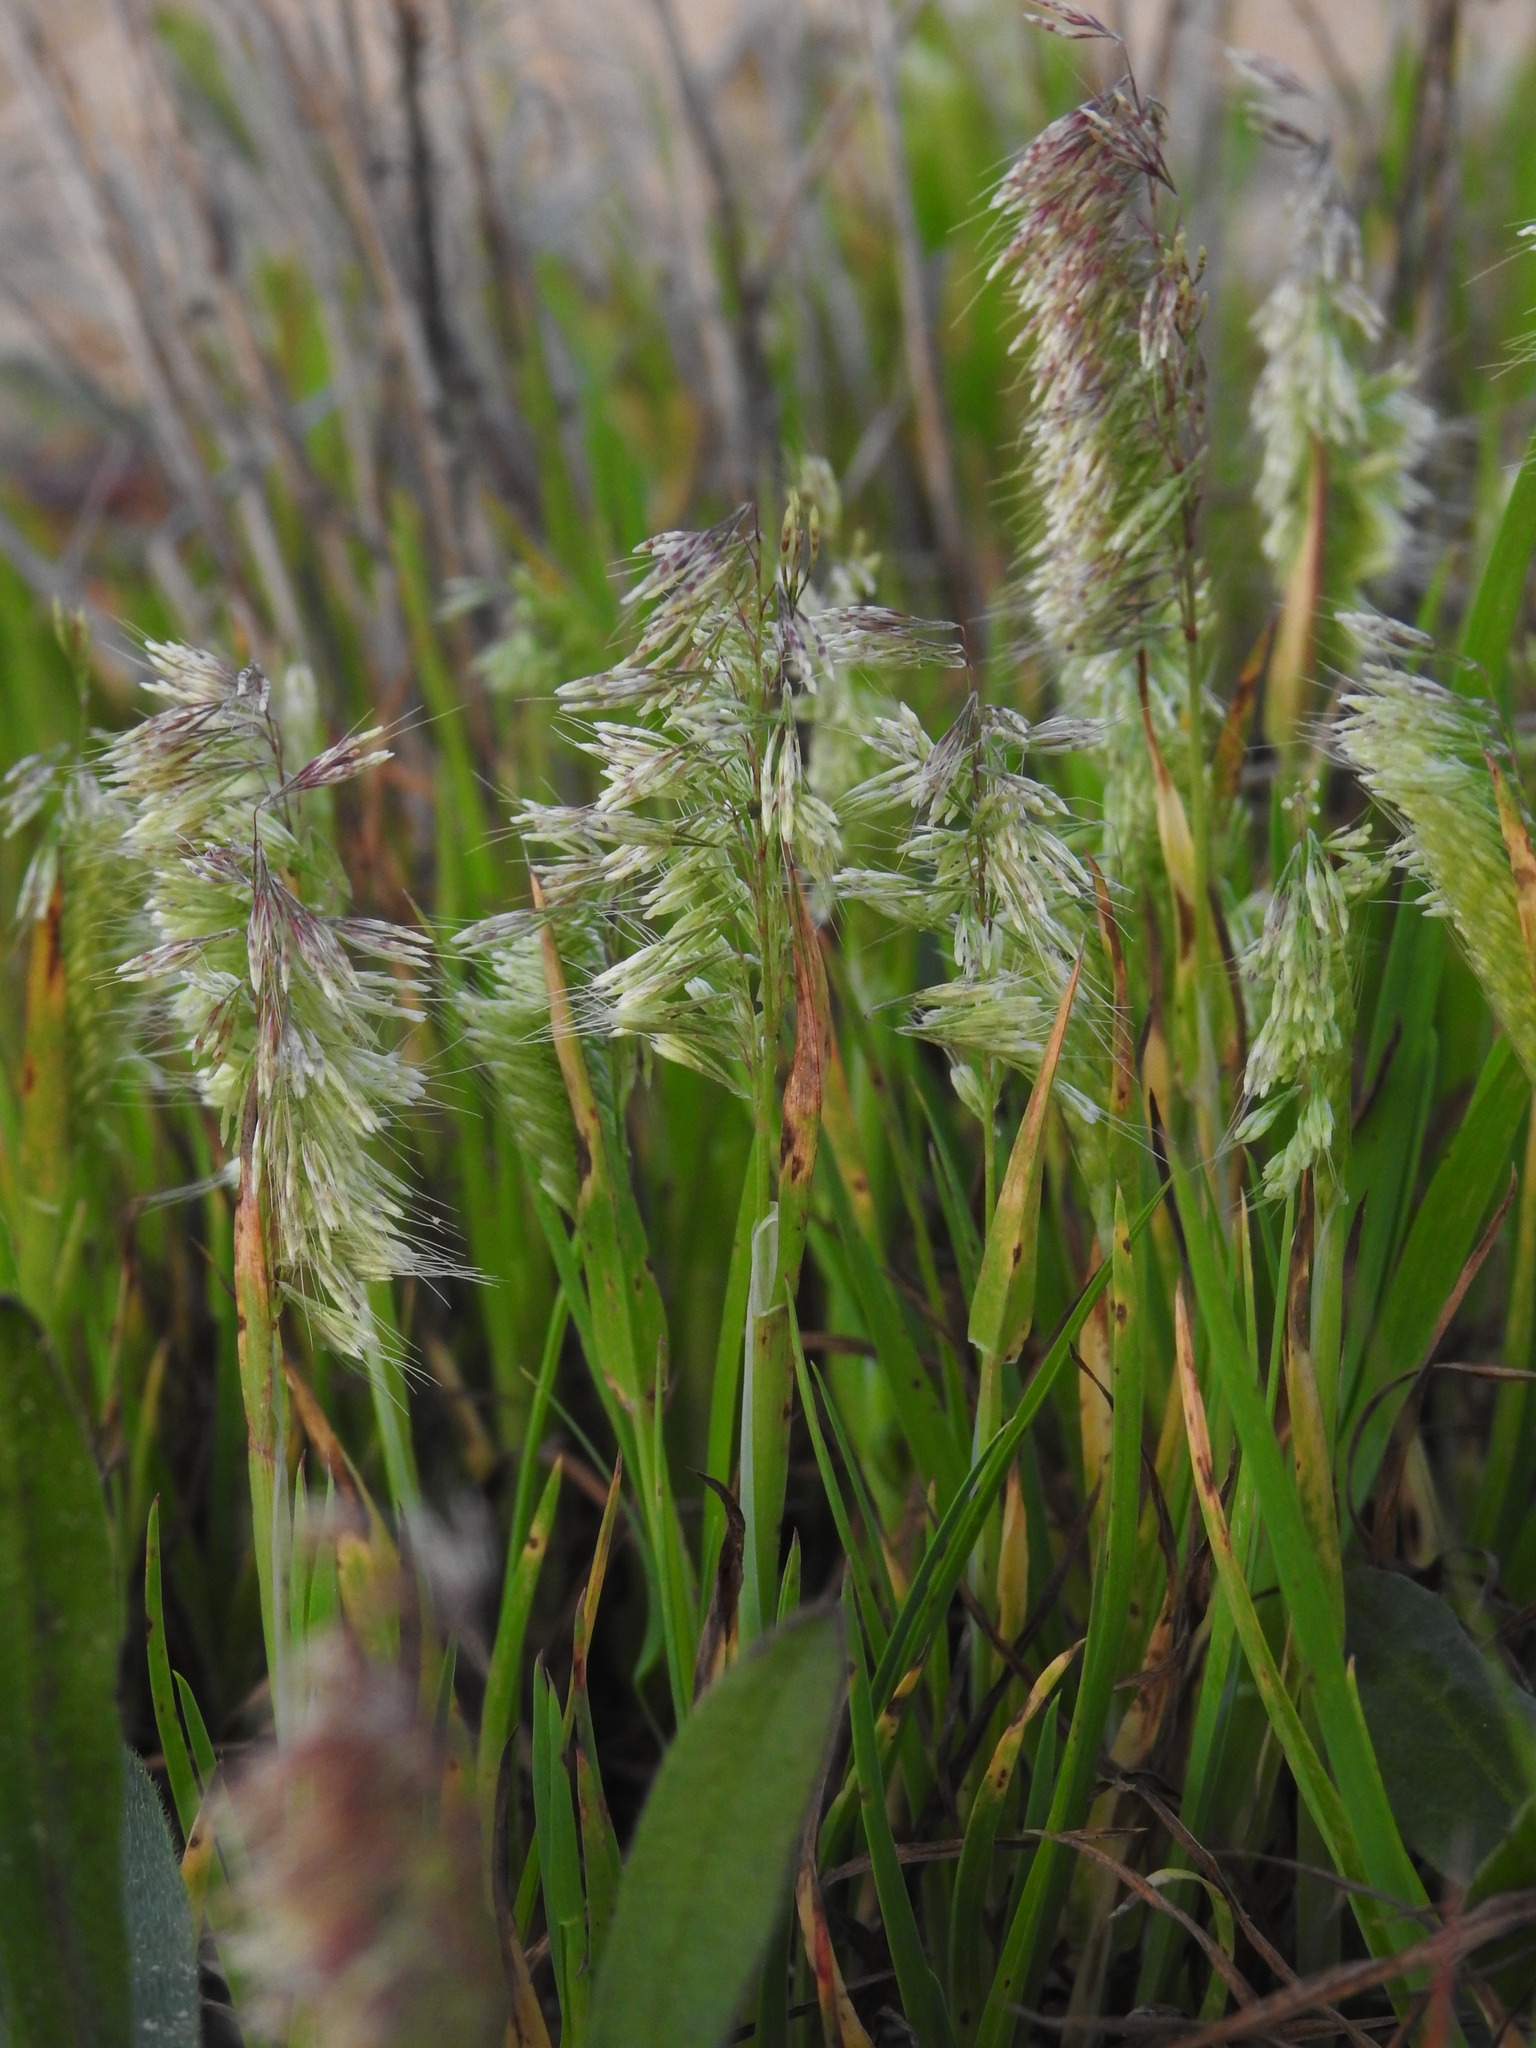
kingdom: Plantae
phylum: Tracheophyta
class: Liliopsida
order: Poales
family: Poaceae
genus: Lamarckia
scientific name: Lamarckia aurea
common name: Golden dog's-tail
